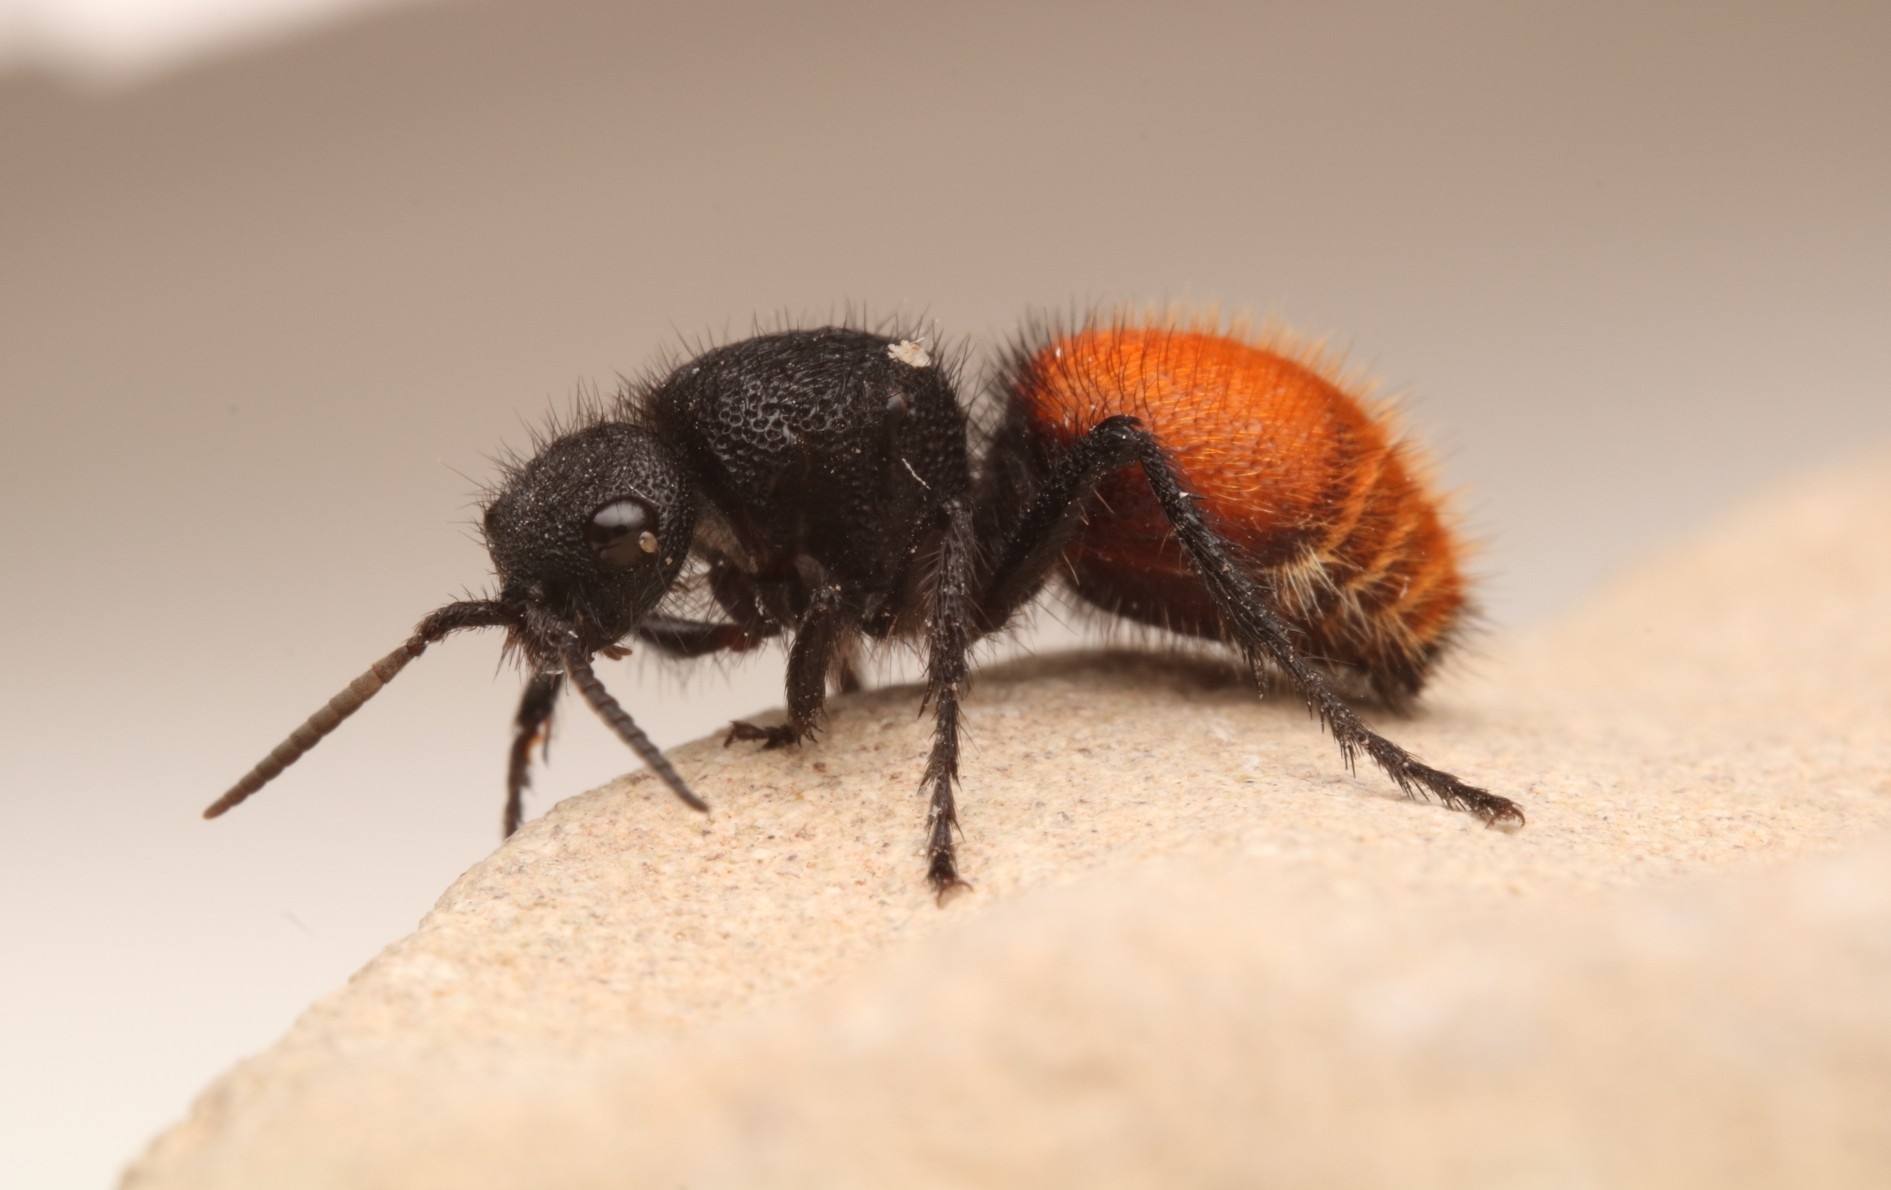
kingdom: Animalia
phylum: Arthropoda
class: Insecta
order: Hymenoptera
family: Mutillidae
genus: Dasymutilla
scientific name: Dasymutilla
